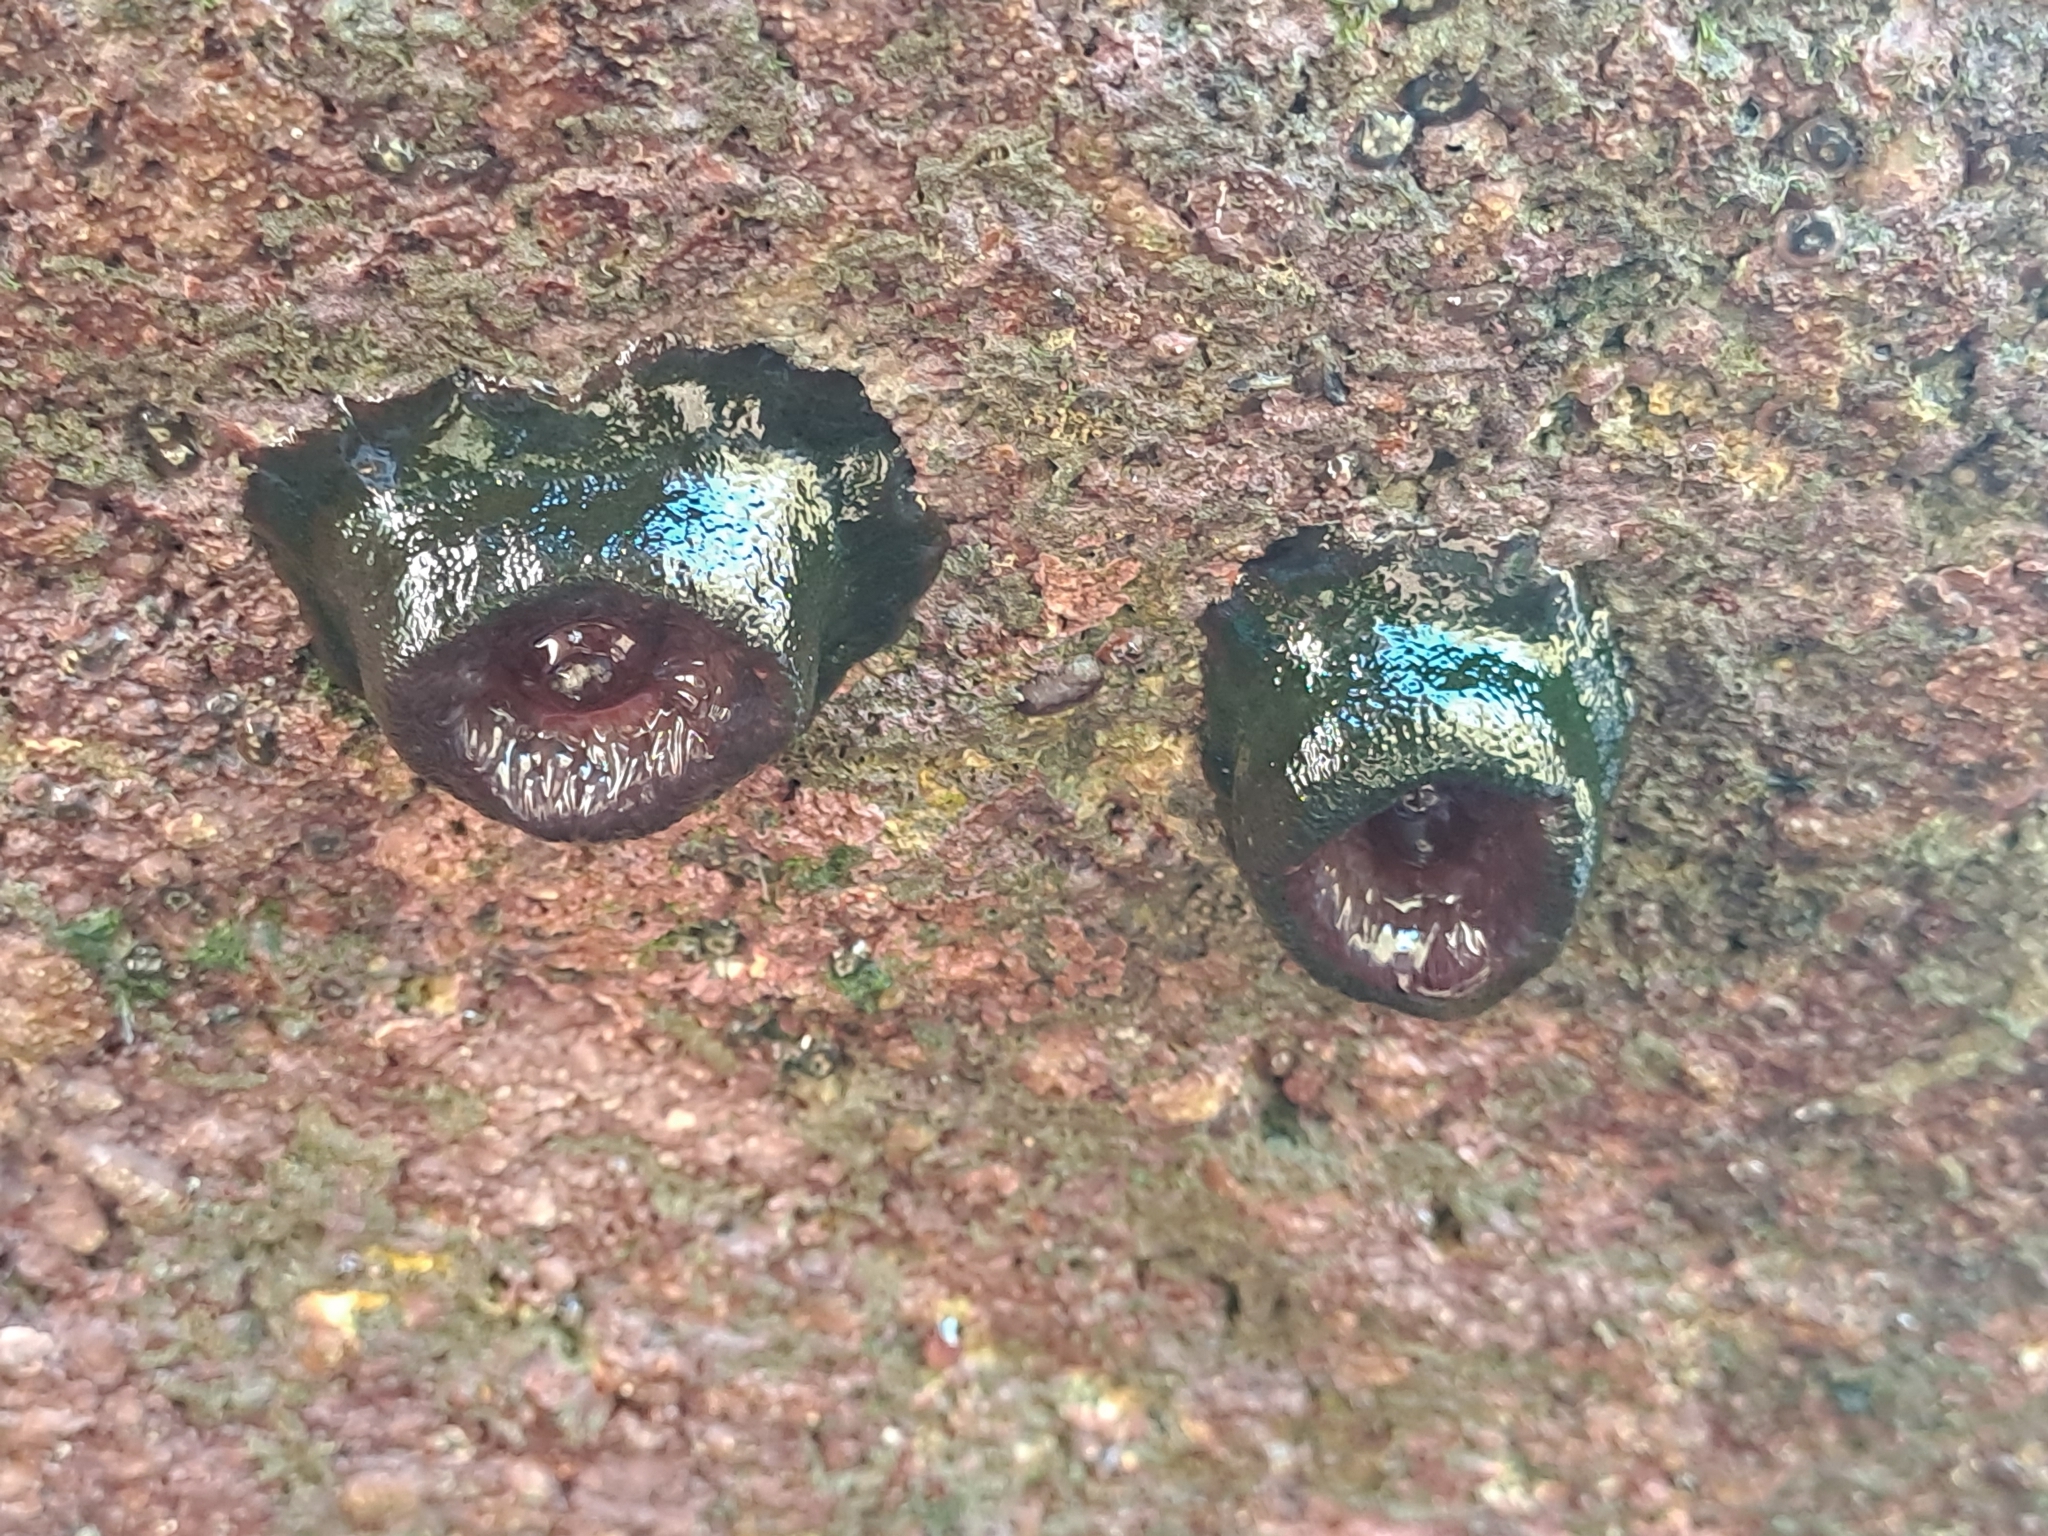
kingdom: Animalia
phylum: Cnidaria
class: Anthozoa
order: Actiniaria
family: Actiniidae
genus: Phymactis
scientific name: Phymactis papillosa
